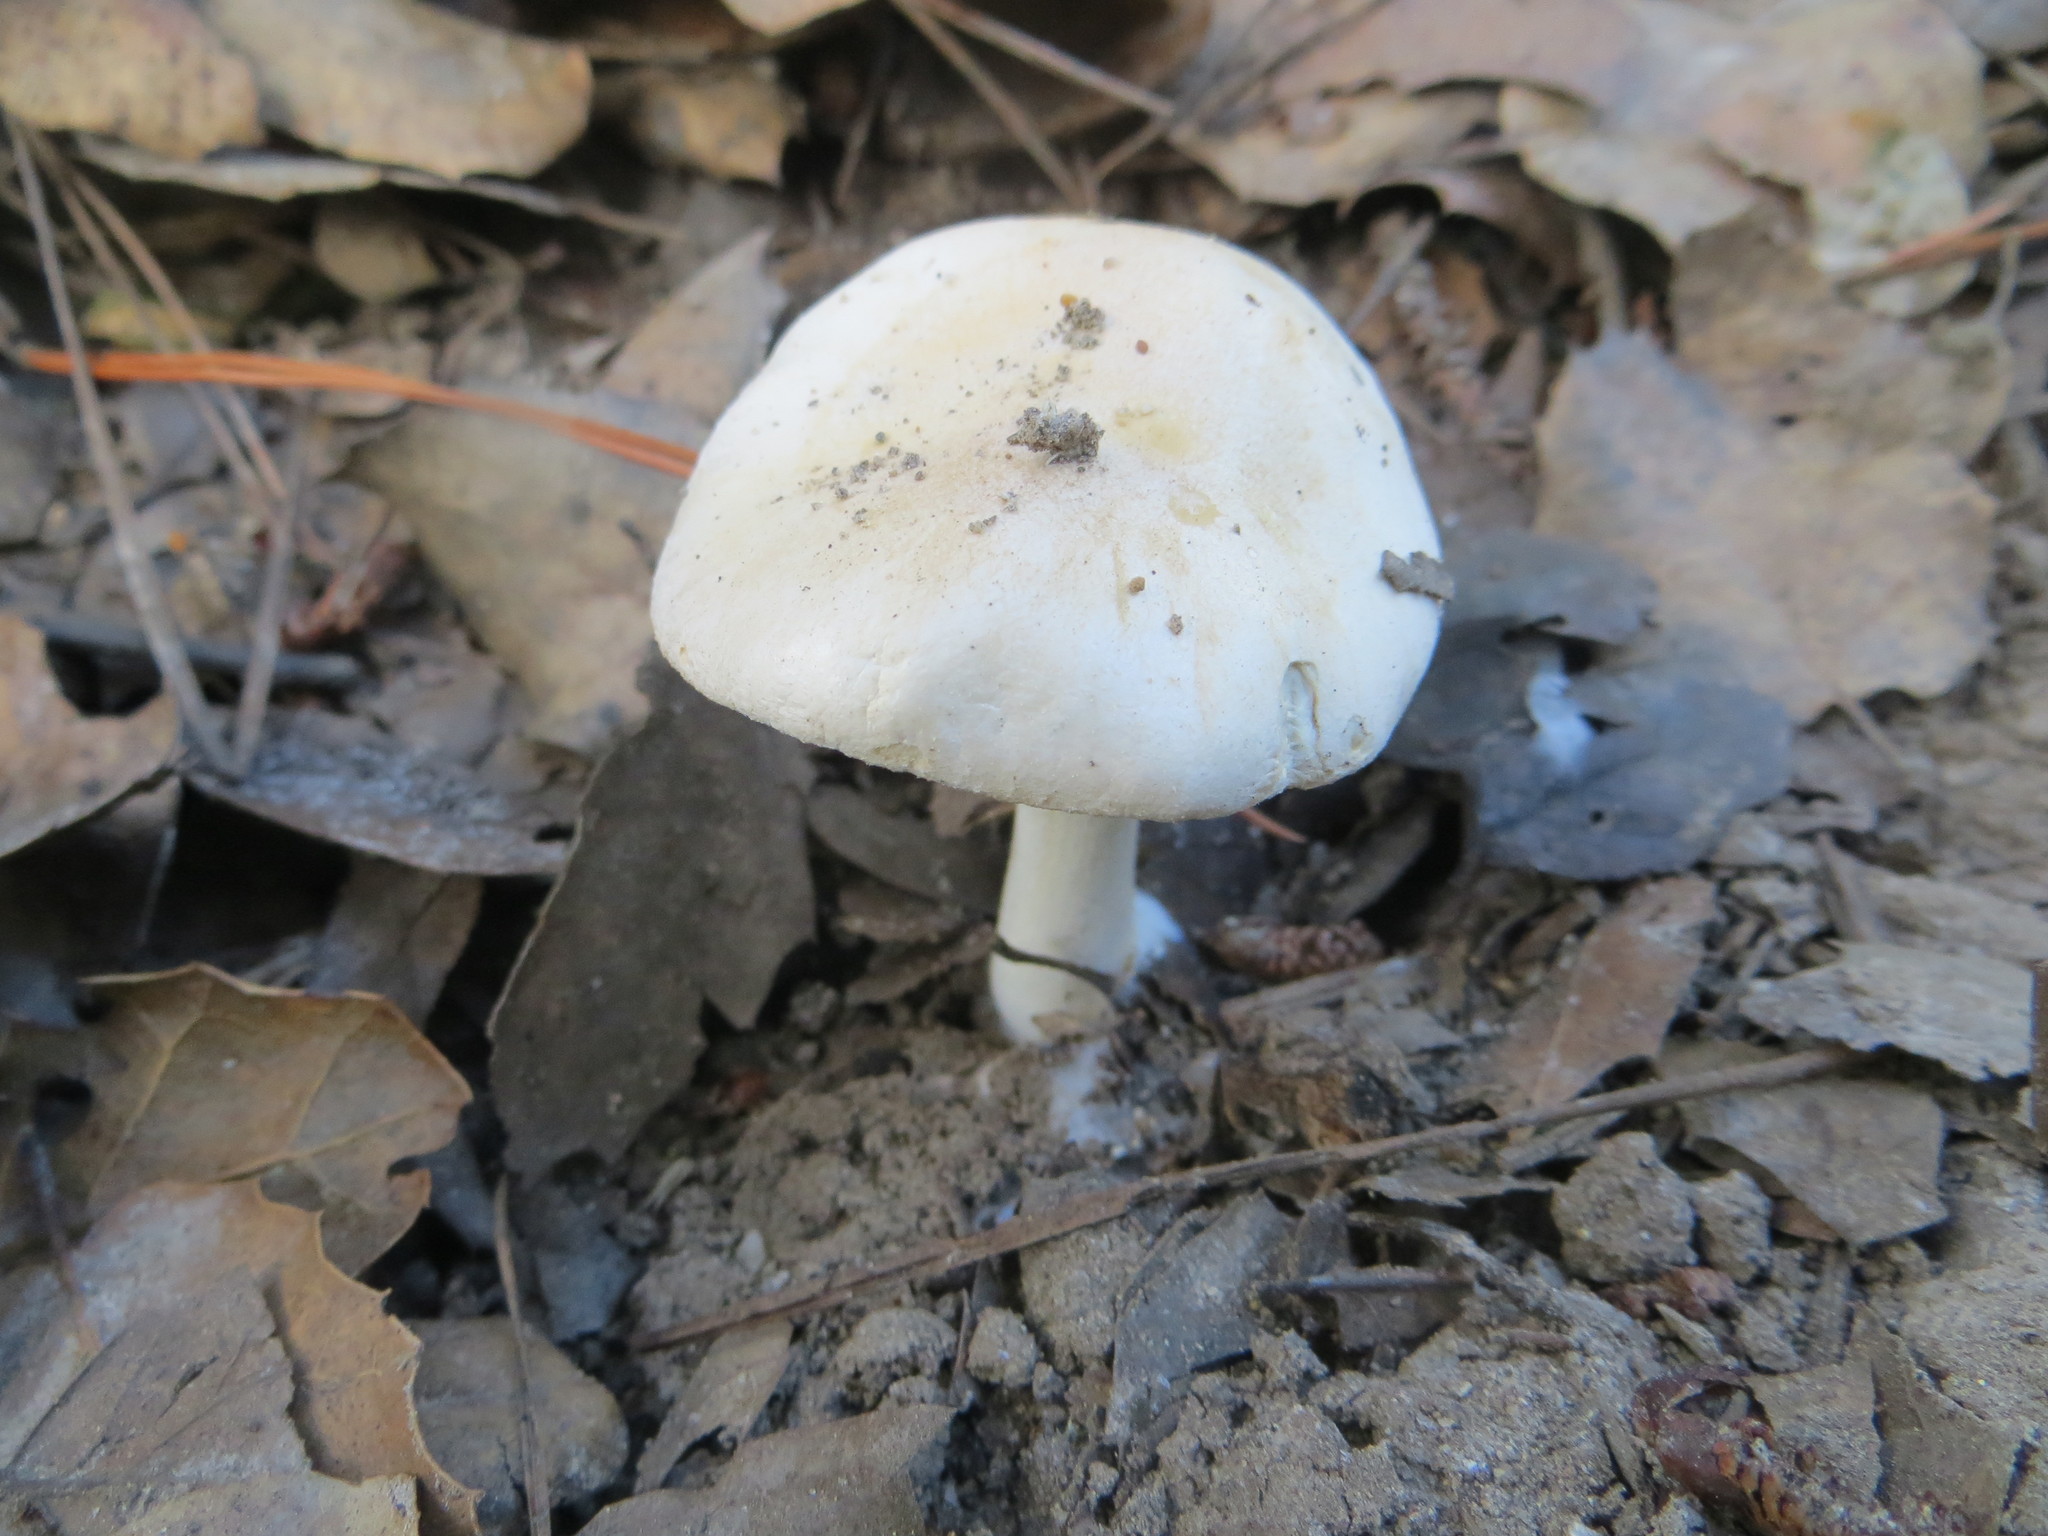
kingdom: Fungi
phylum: Basidiomycota
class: Agaricomycetes
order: Agaricales
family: Hymenogastraceae
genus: Hebeloma
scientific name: Hebeloma crustuliniforme
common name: Poison pie
